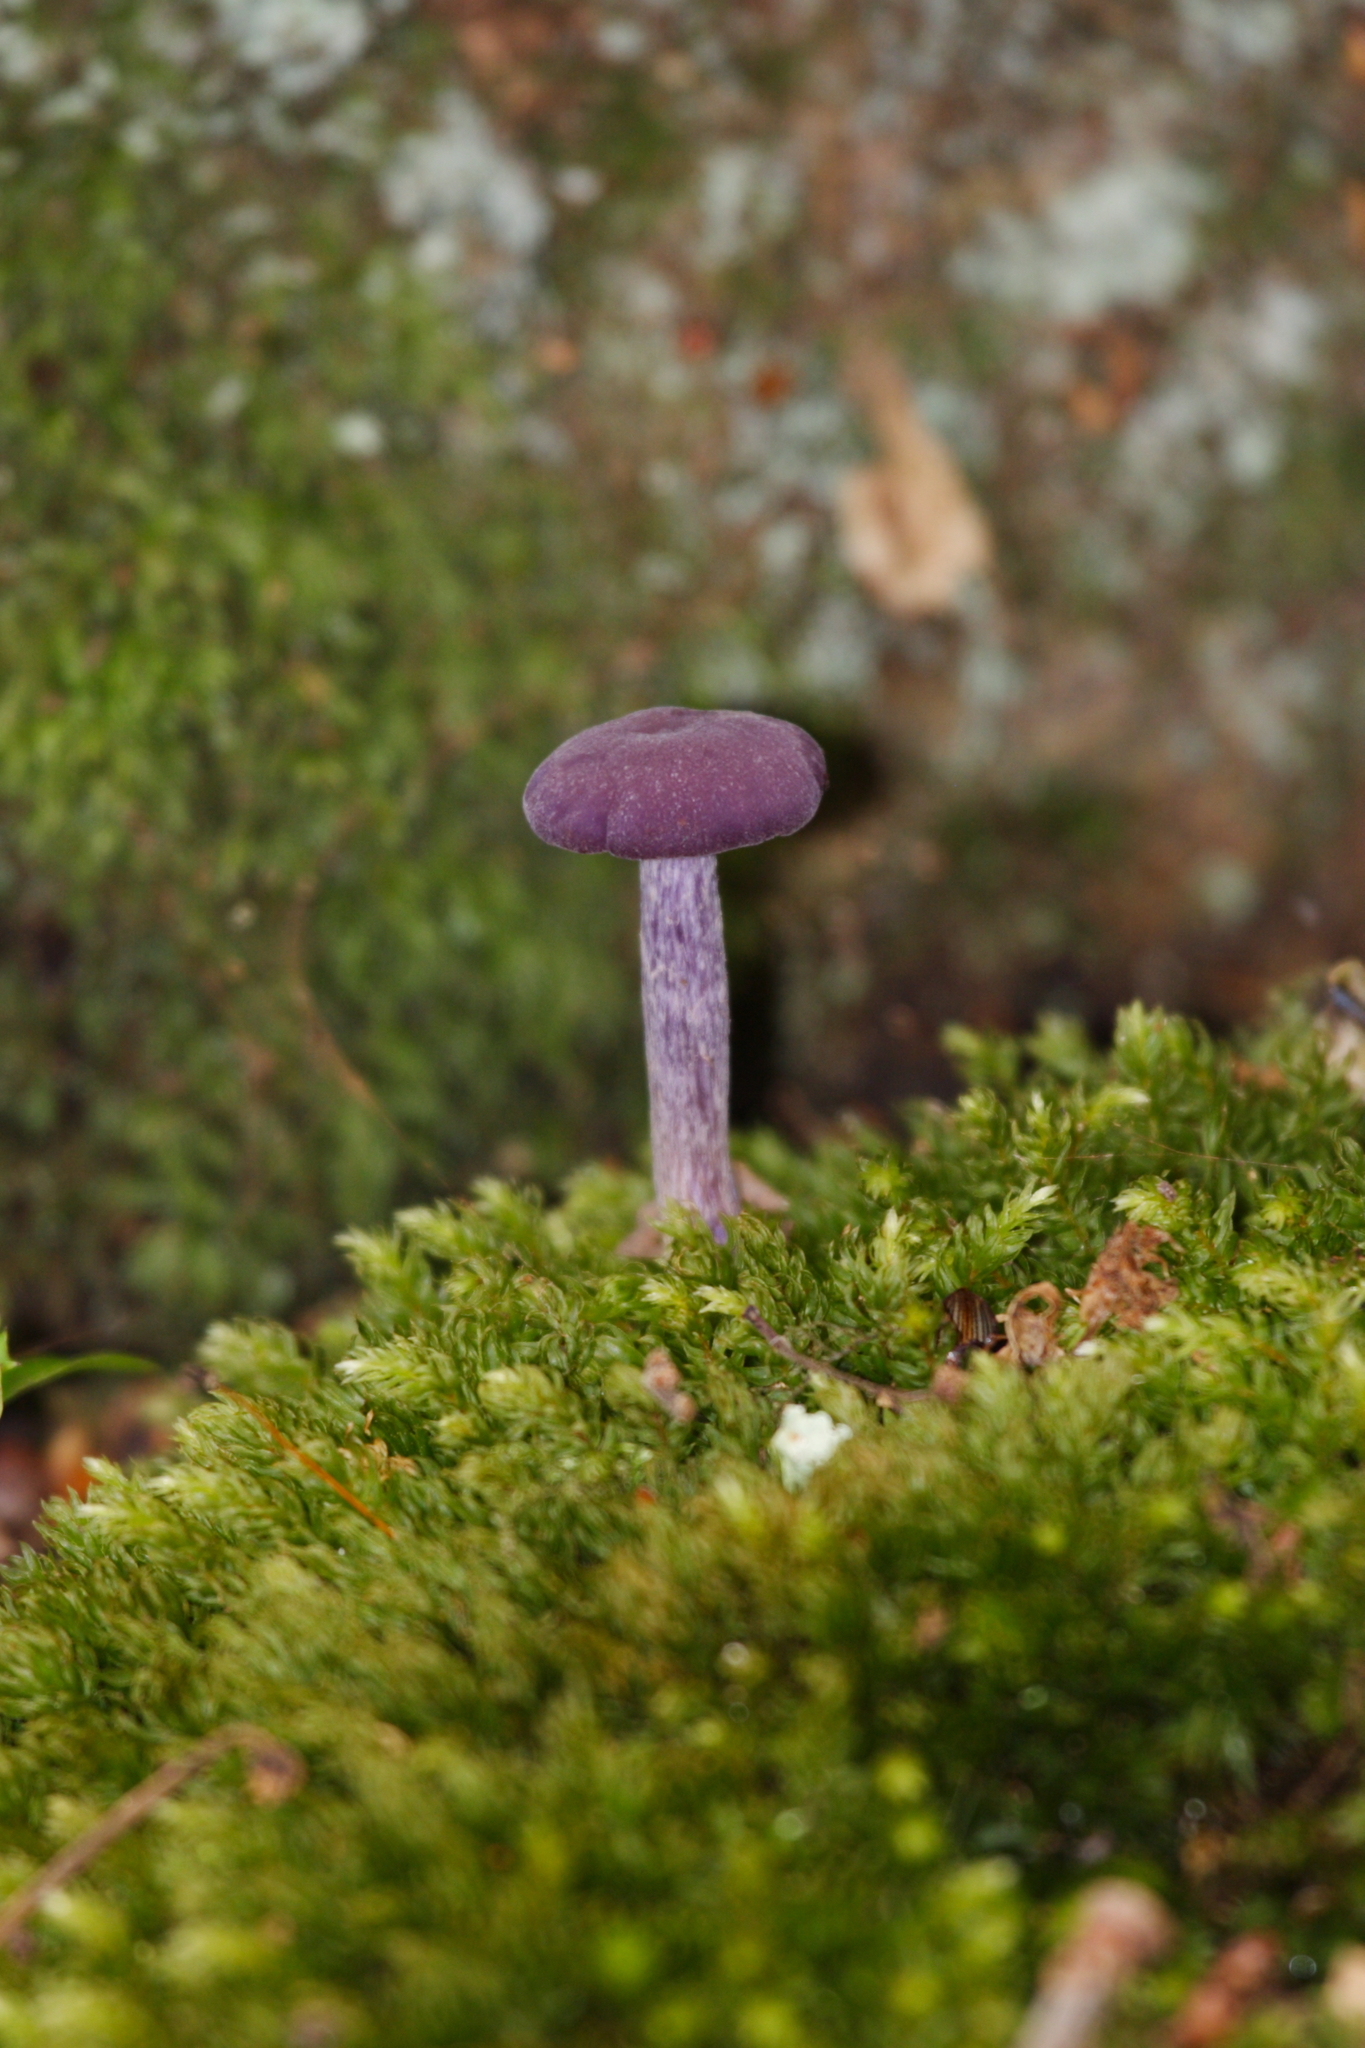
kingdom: Fungi
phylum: Basidiomycota
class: Agaricomycetes
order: Agaricales
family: Hydnangiaceae
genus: Laccaria
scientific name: Laccaria amethystina
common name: Amethyst deceiver
